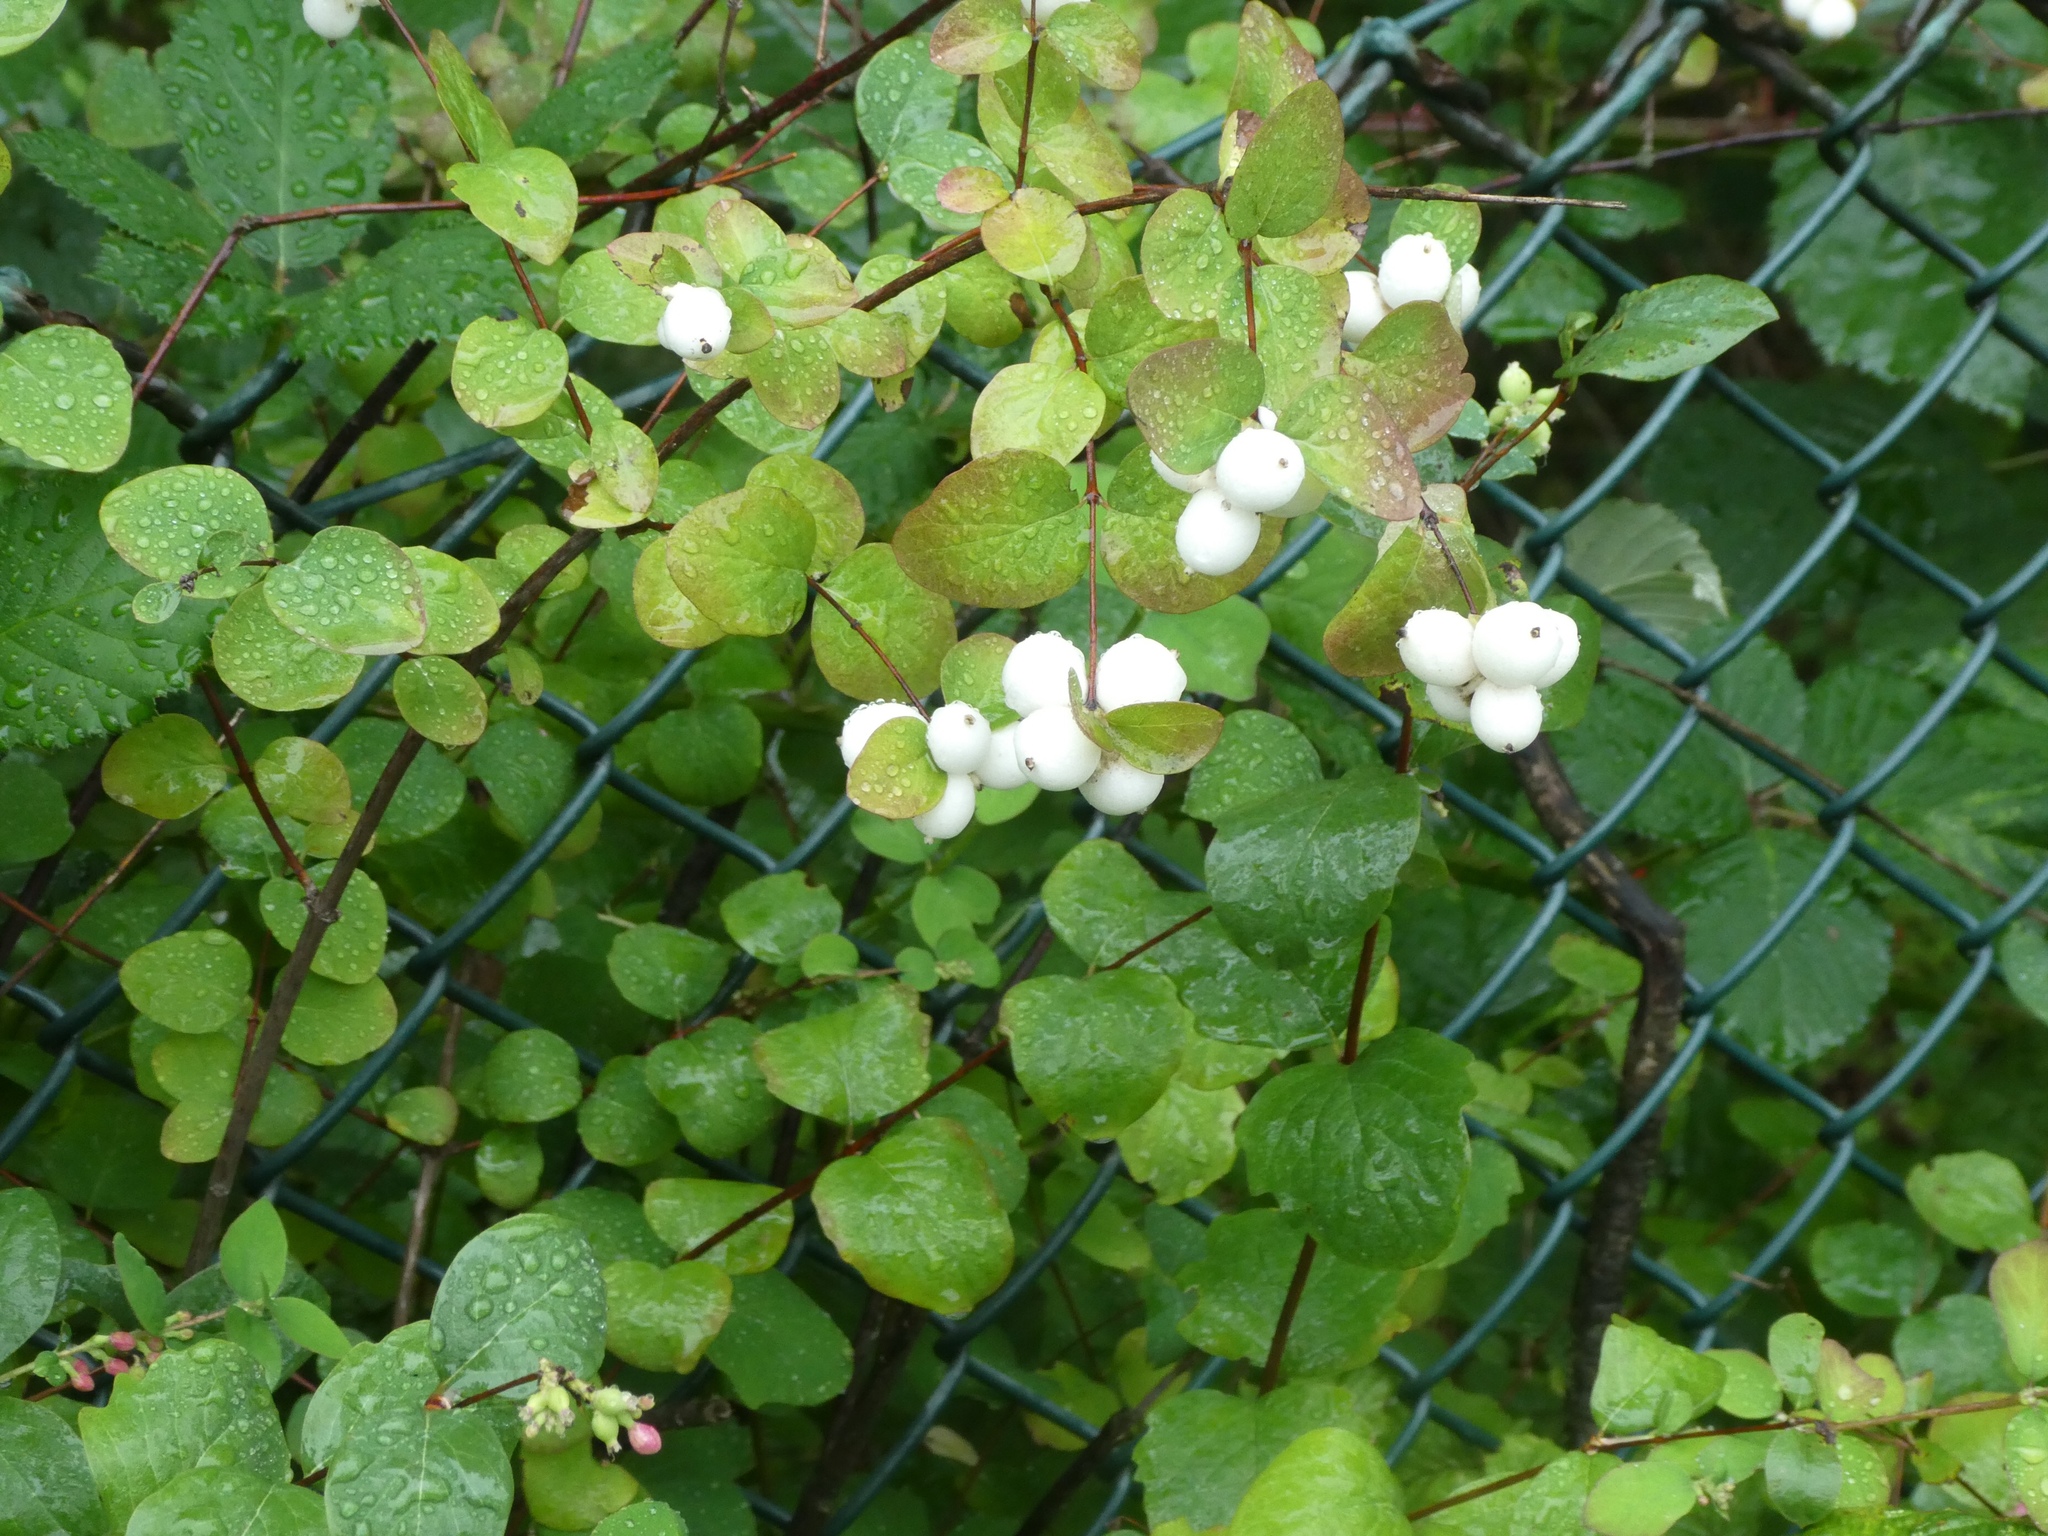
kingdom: Plantae
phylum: Tracheophyta
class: Magnoliopsida
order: Dipsacales
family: Caprifoliaceae
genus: Symphoricarpos
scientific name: Symphoricarpos albus
